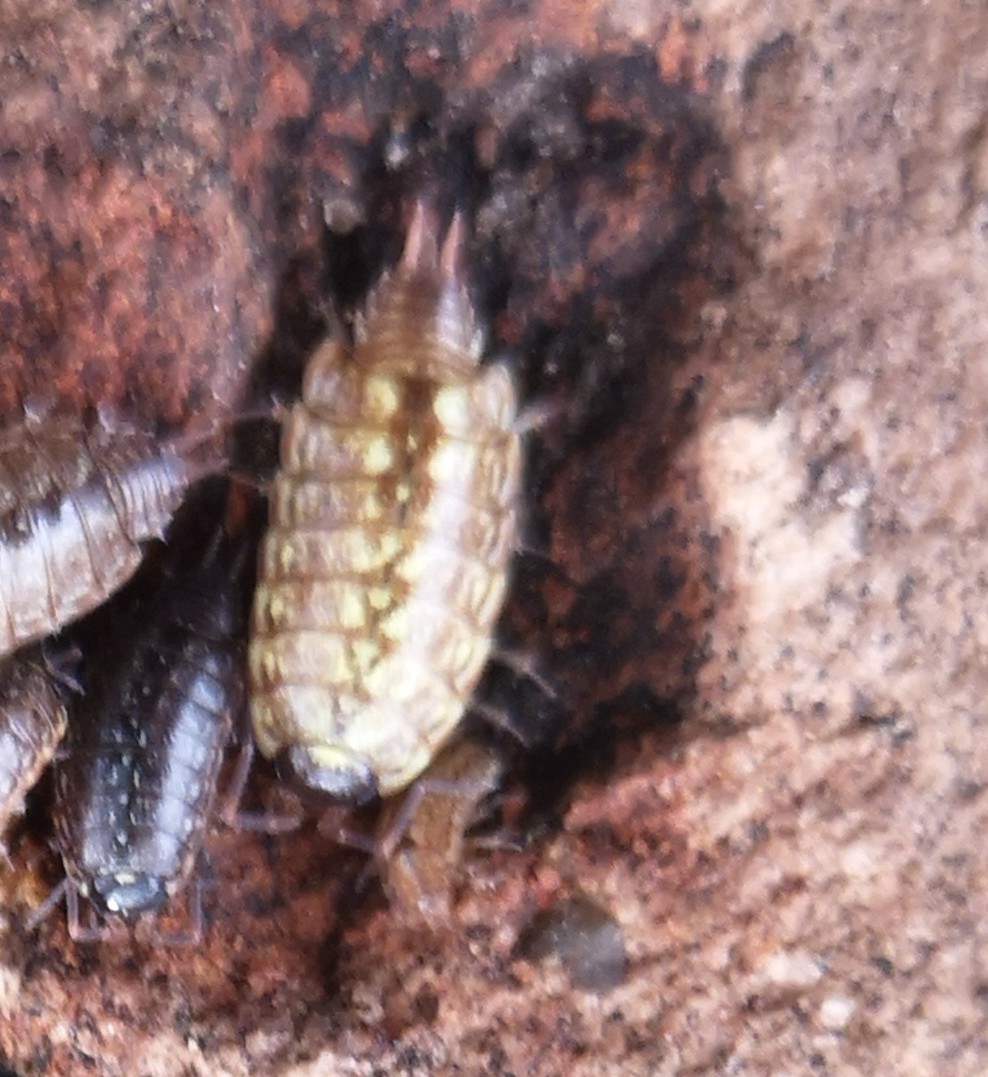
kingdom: Animalia
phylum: Arthropoda
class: Malacostraca
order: Isopoda
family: Philosciidae
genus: Philoscia
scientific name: Philoscia muscorum
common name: Common striped woodlouse
